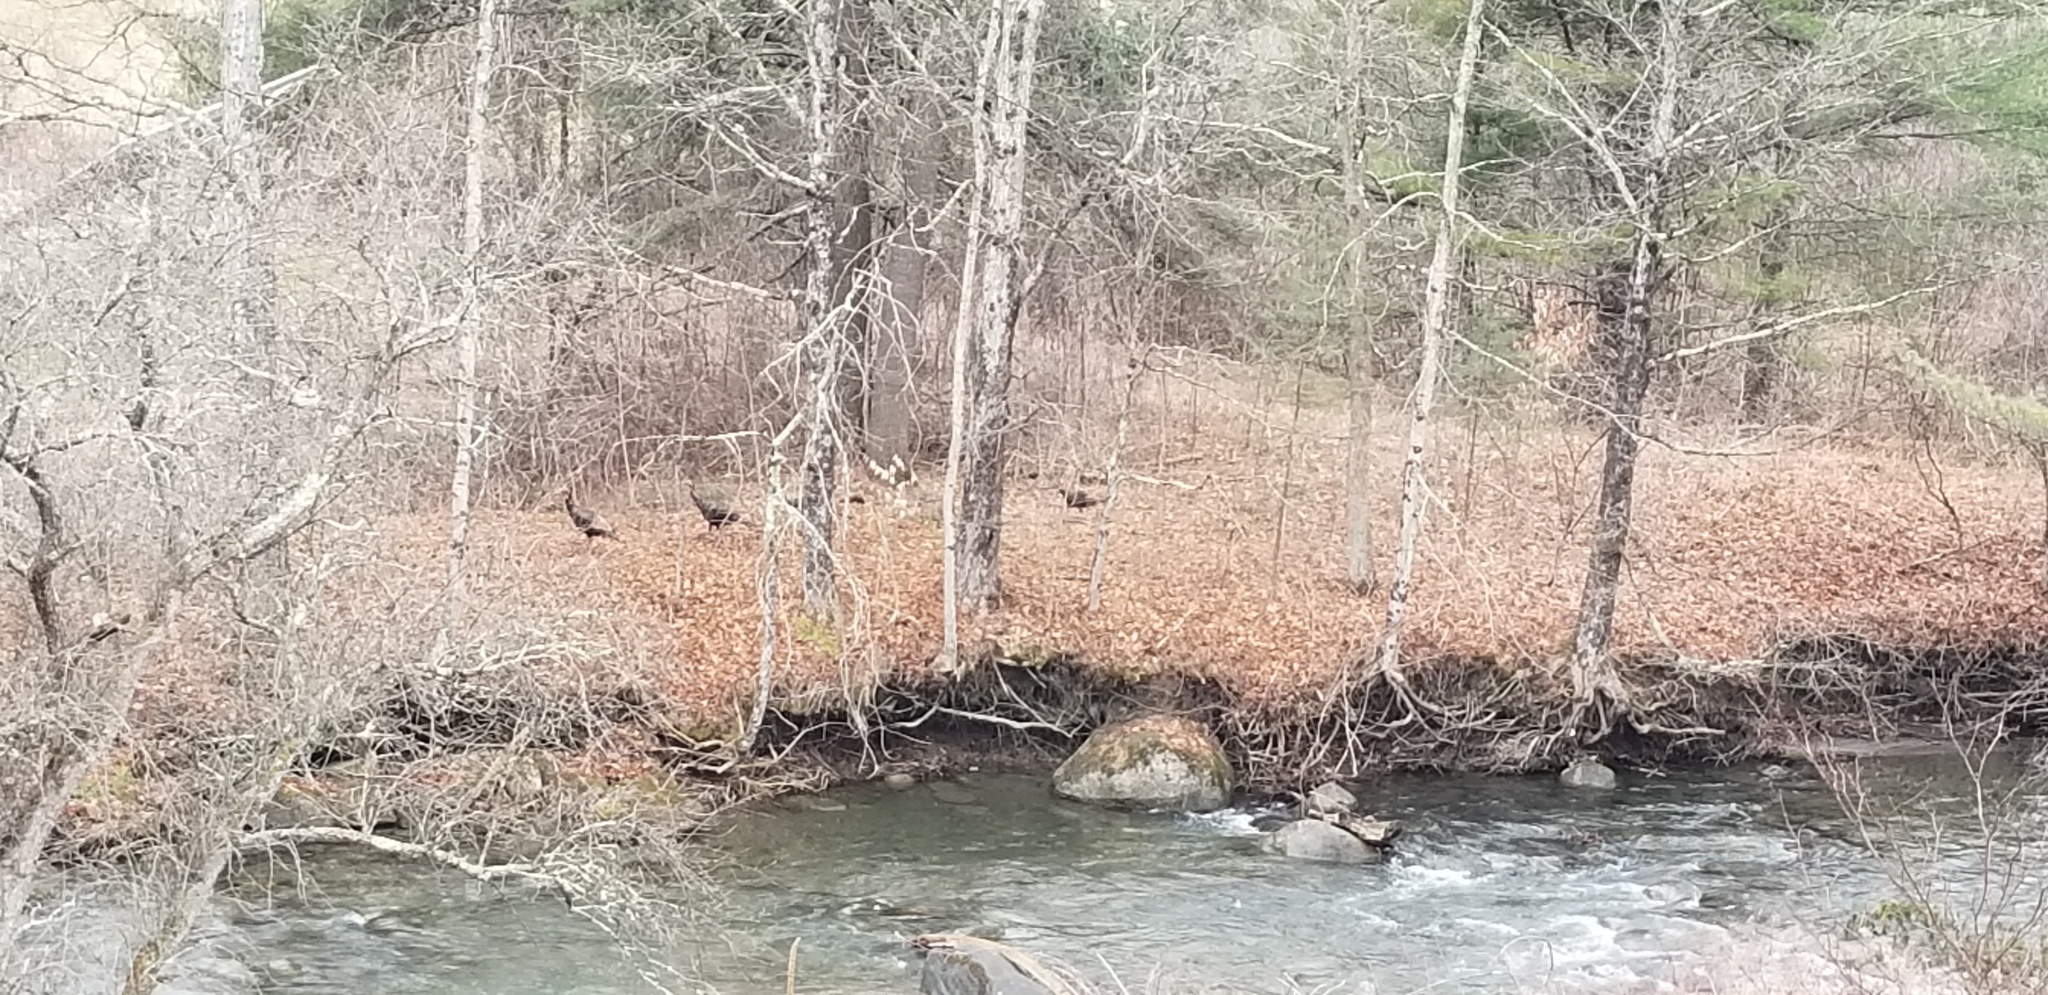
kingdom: Animalia
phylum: Chordata
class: Aves
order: Galliformes
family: Phasianidae
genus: Meleagris
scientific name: Meleagris gallopavo
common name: Wild turkey
